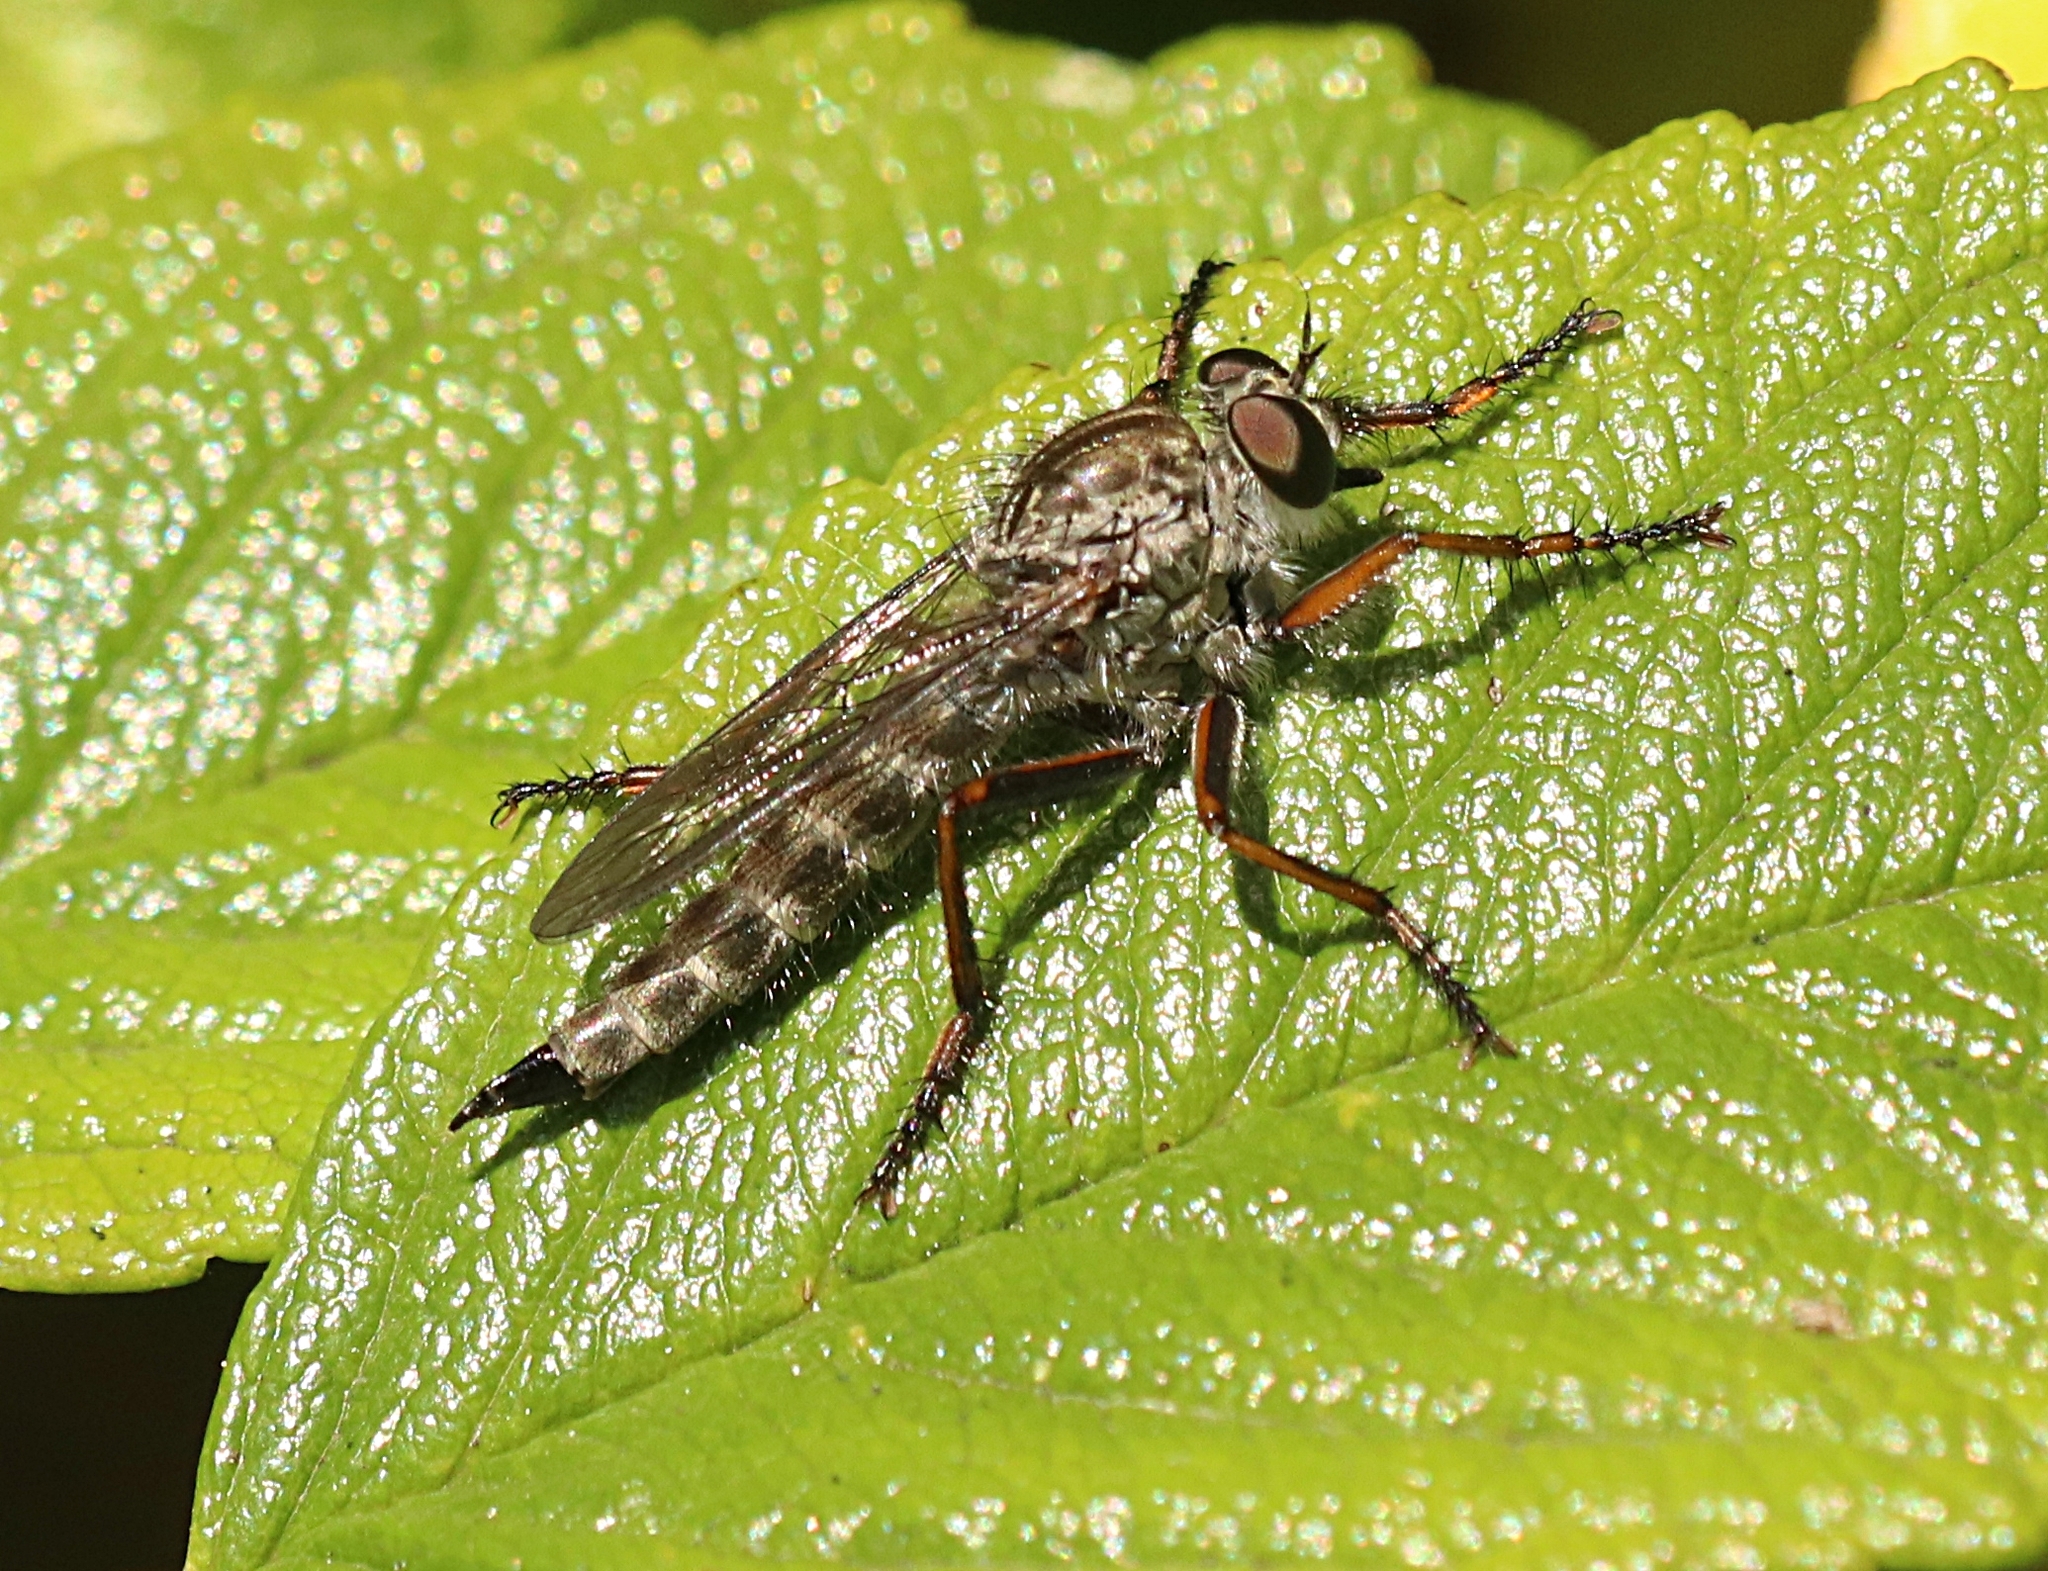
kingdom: Animalia
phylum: Arthropoda
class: Insecta
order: Diptera
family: Asilidae
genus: Machimus
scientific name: Machimus atricapillus
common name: Kite-tailed robberfly
